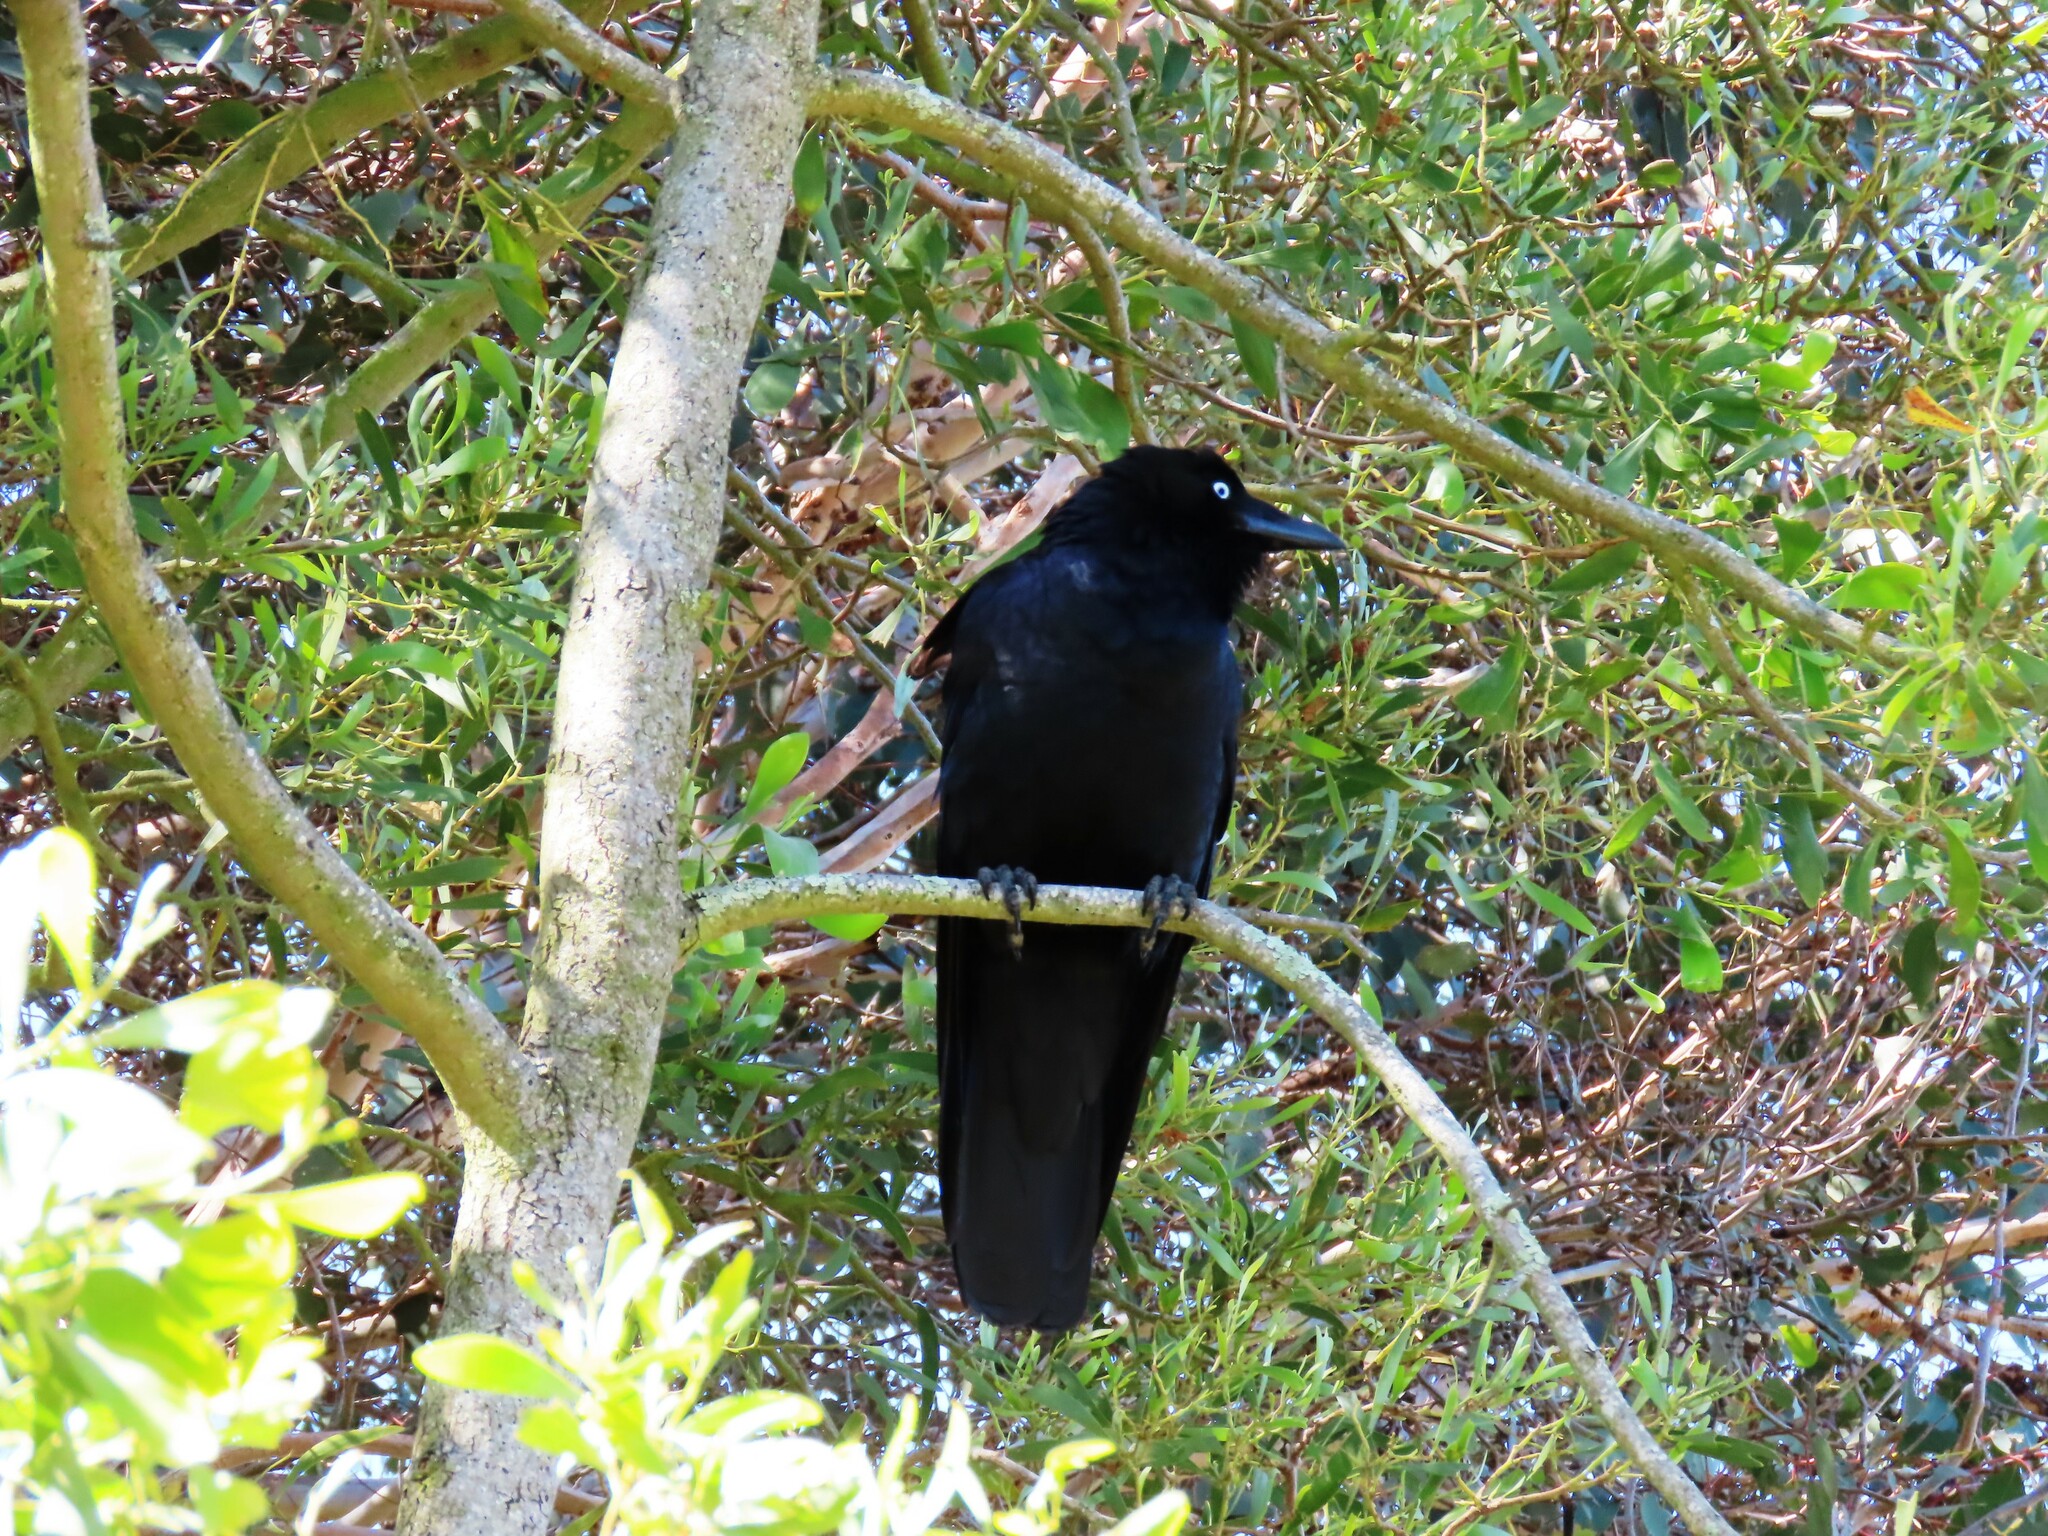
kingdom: Animalia
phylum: Chordata
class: Aves
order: Passeriformes
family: Corvidae
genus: Corvus
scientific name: Corvus mellori
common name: Little raven
